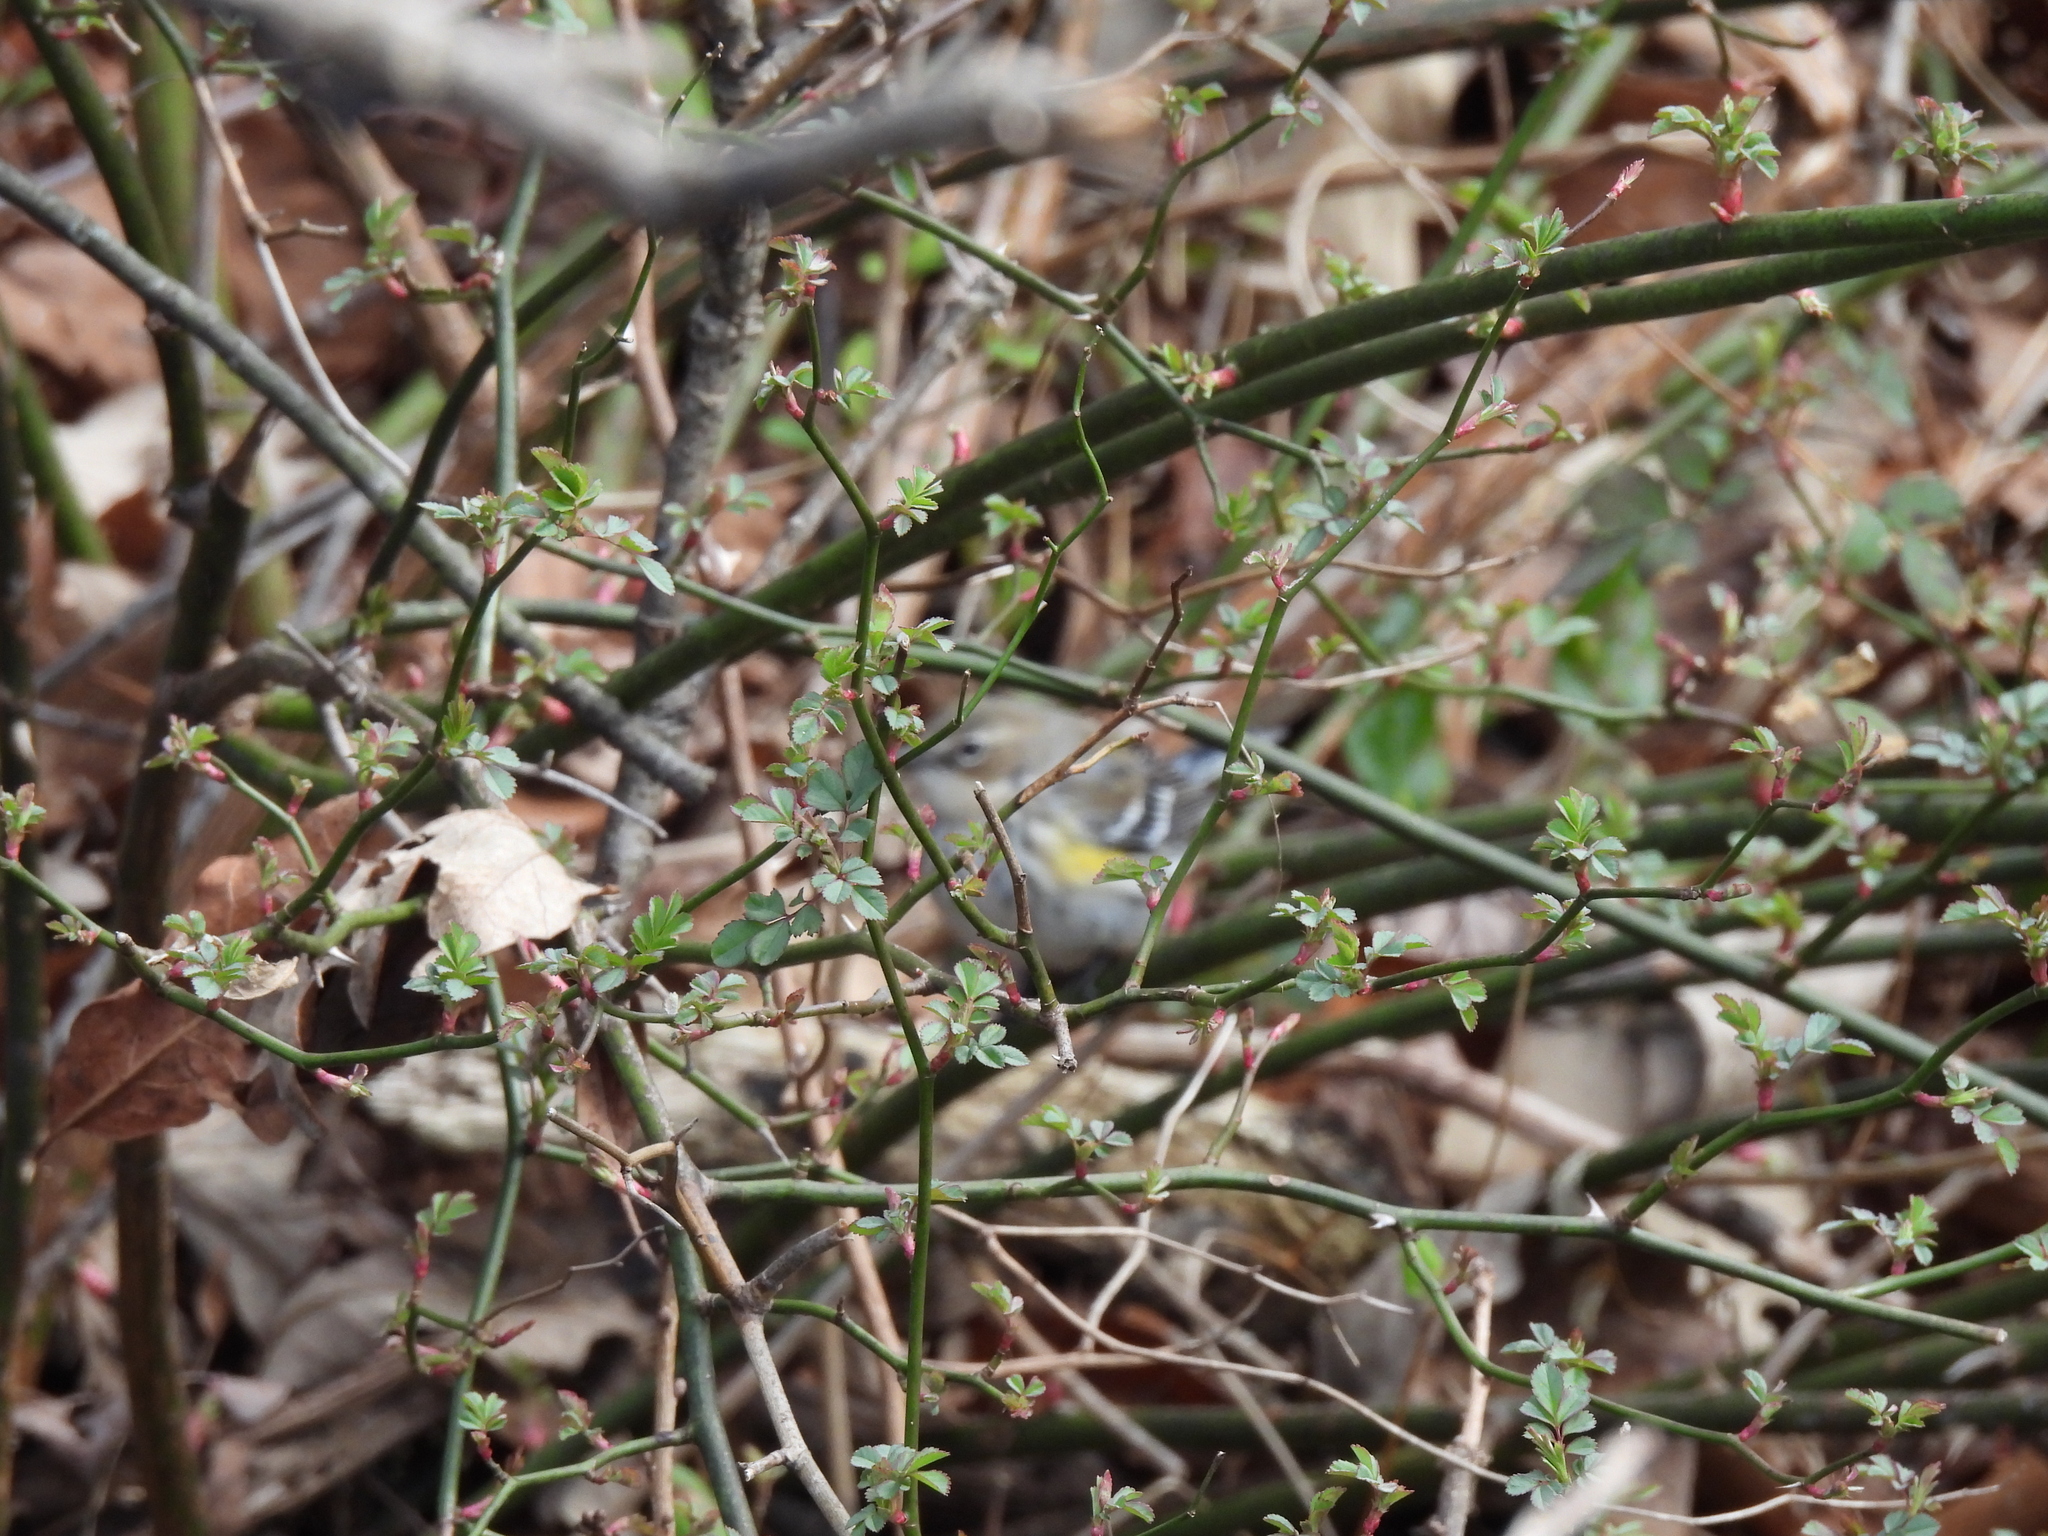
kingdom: Animalia
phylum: Chordata
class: Aves
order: Passeriformes
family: Parulidae
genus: Setophaga
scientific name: Setophaga coronata
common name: Myrtle warbler
